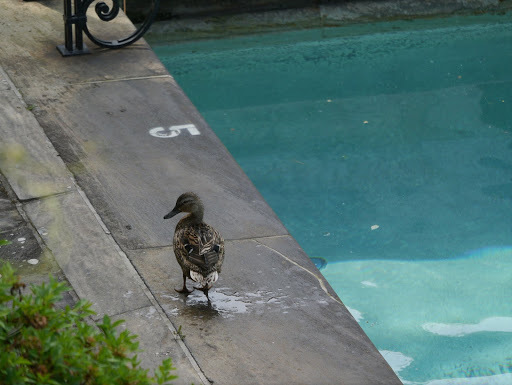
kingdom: Animalia
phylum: Chordata
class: Aves
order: Anseriformes
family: Anatidae
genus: Anas
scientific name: Anas platyrhynchos
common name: Mallard
